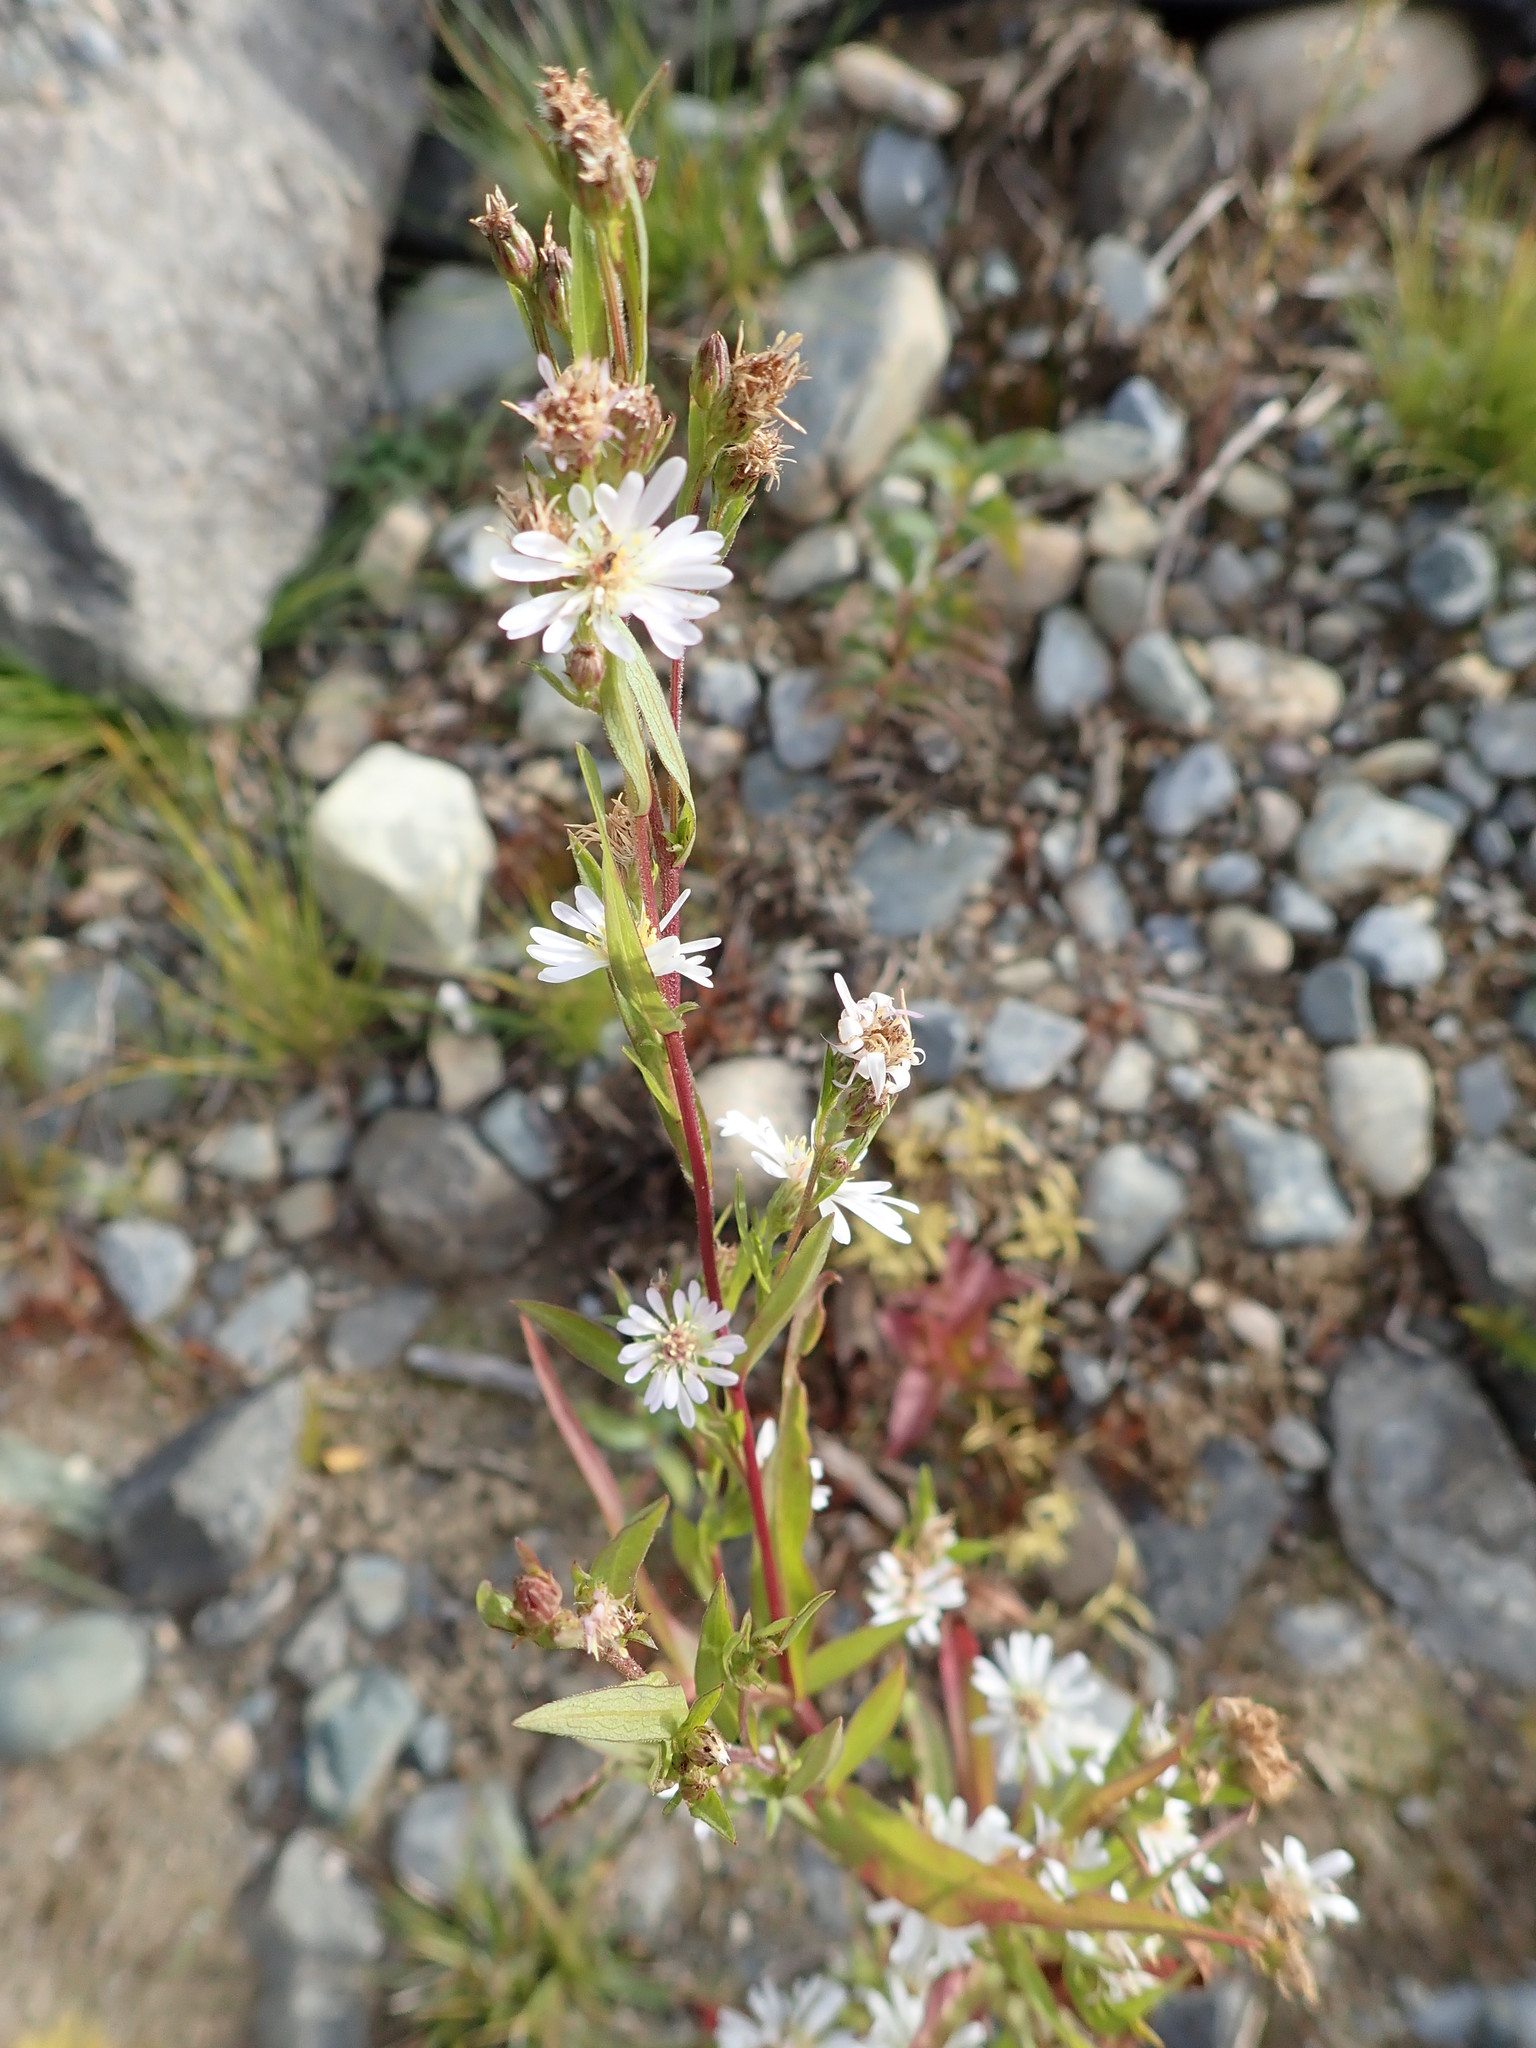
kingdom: Plantae
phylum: Tracheophyta
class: Magnoliopsida
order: Asterales
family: Asteraceae
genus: Symphyotrichum
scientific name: Symphyotrichum lanceolatum
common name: Panicled aster
